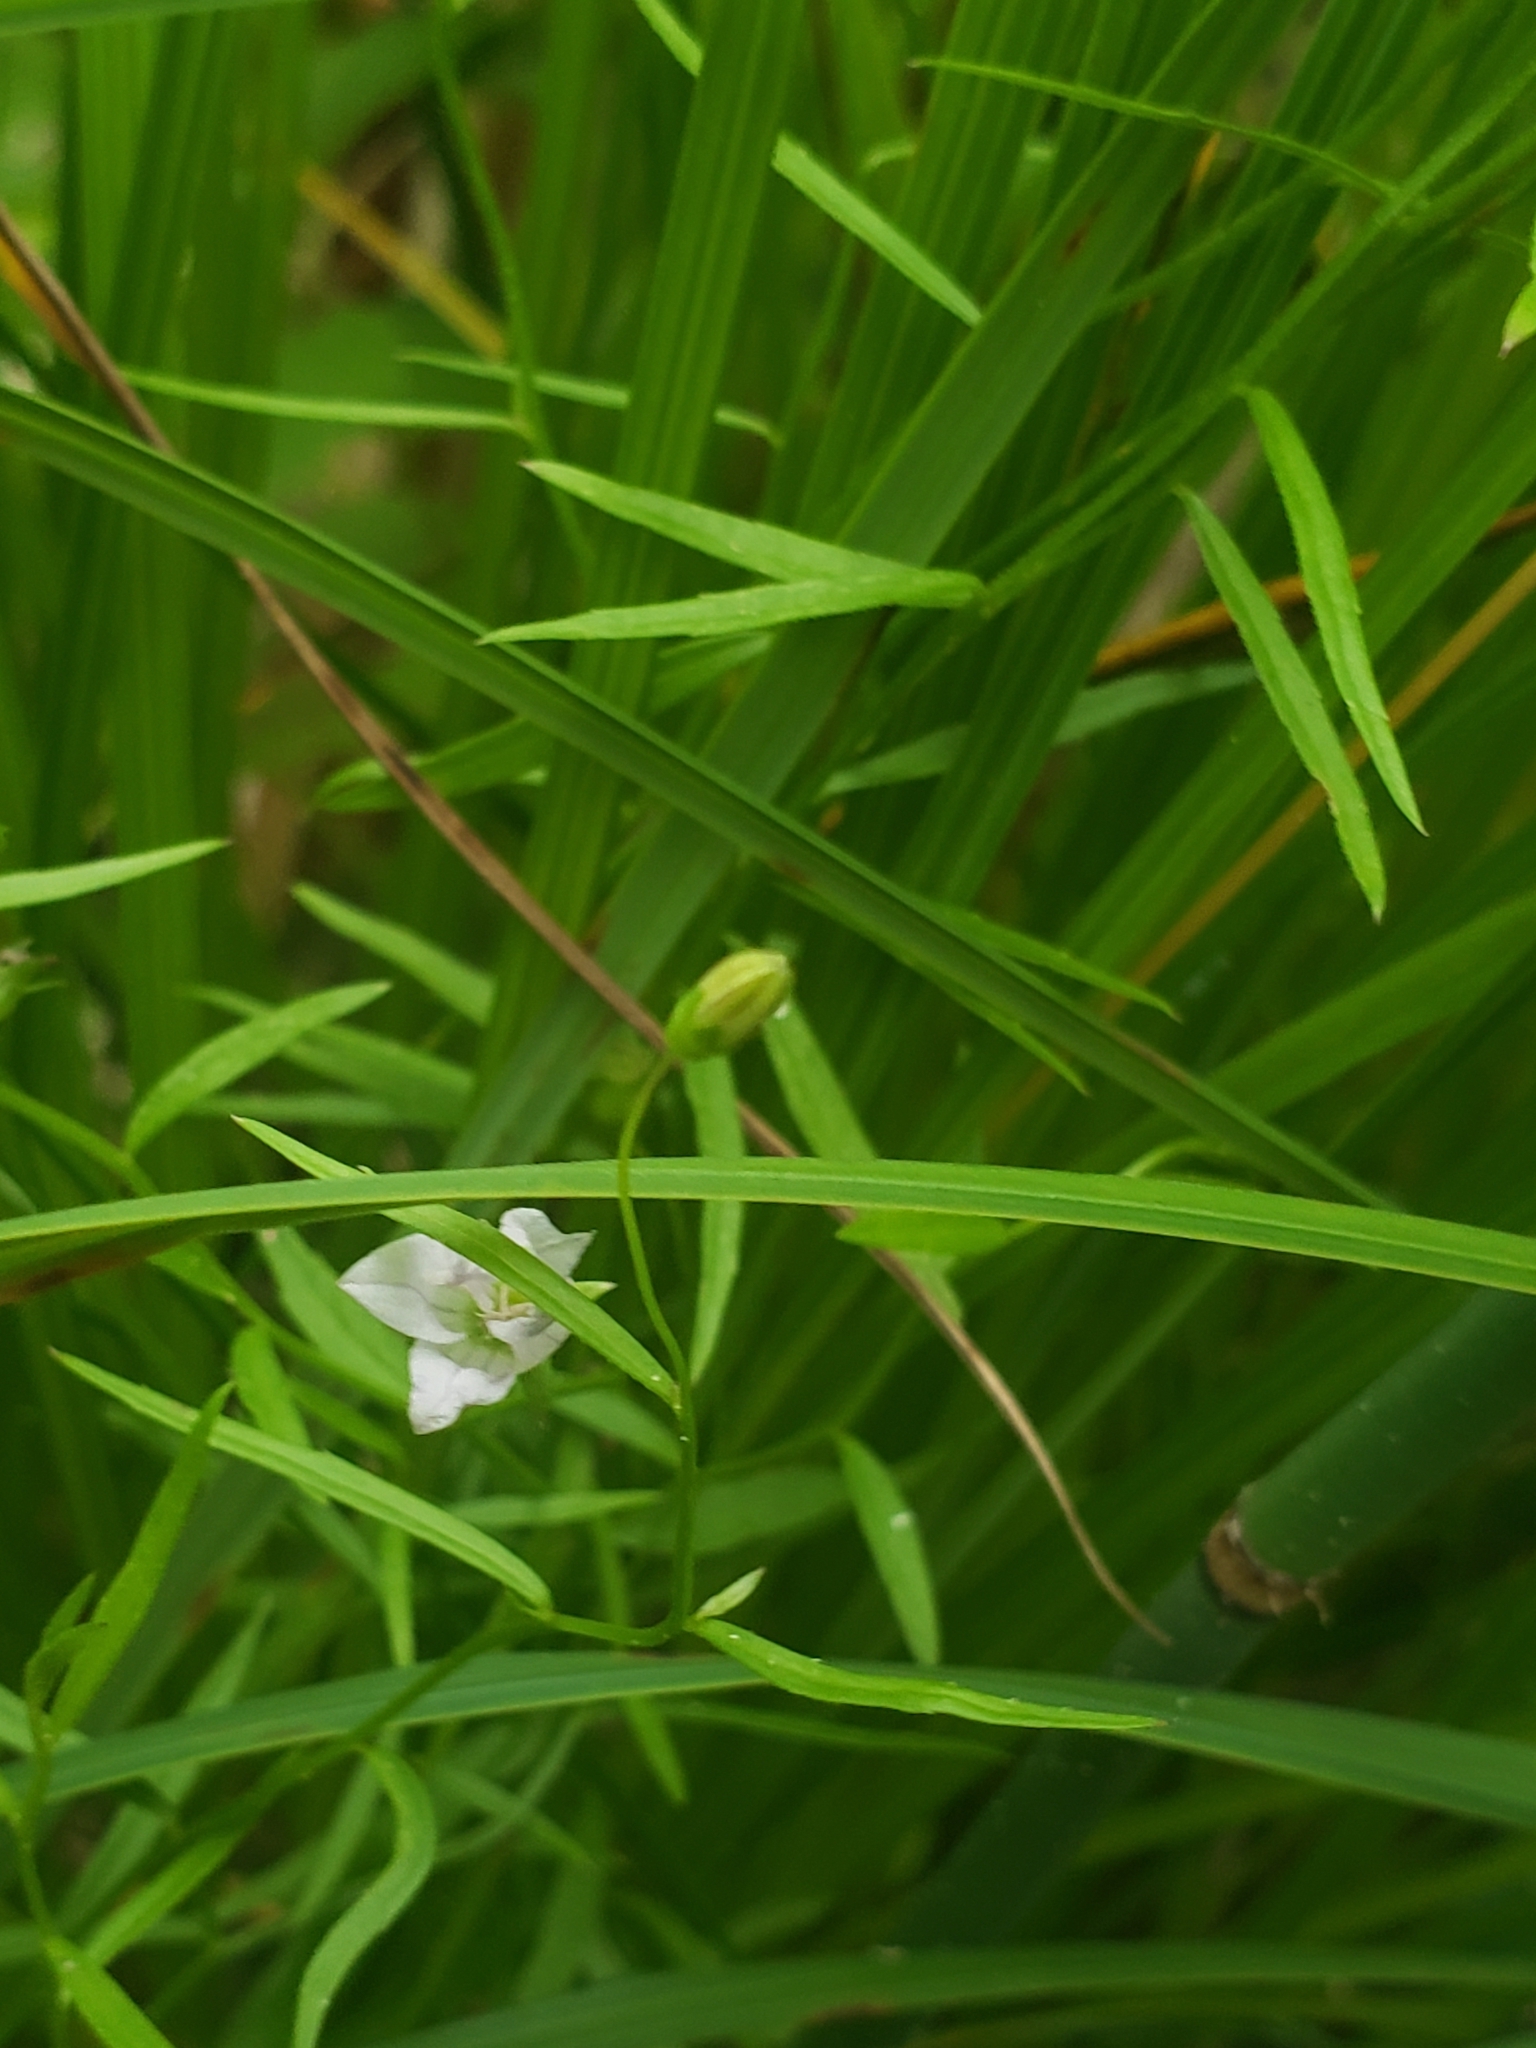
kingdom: Plantae
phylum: Tracheophyta
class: Magnoliopsida
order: Asterales
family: Campanulaceae
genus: Palustricodon
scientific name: Palustricodon aparinoides
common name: Bedstraw bellflower
